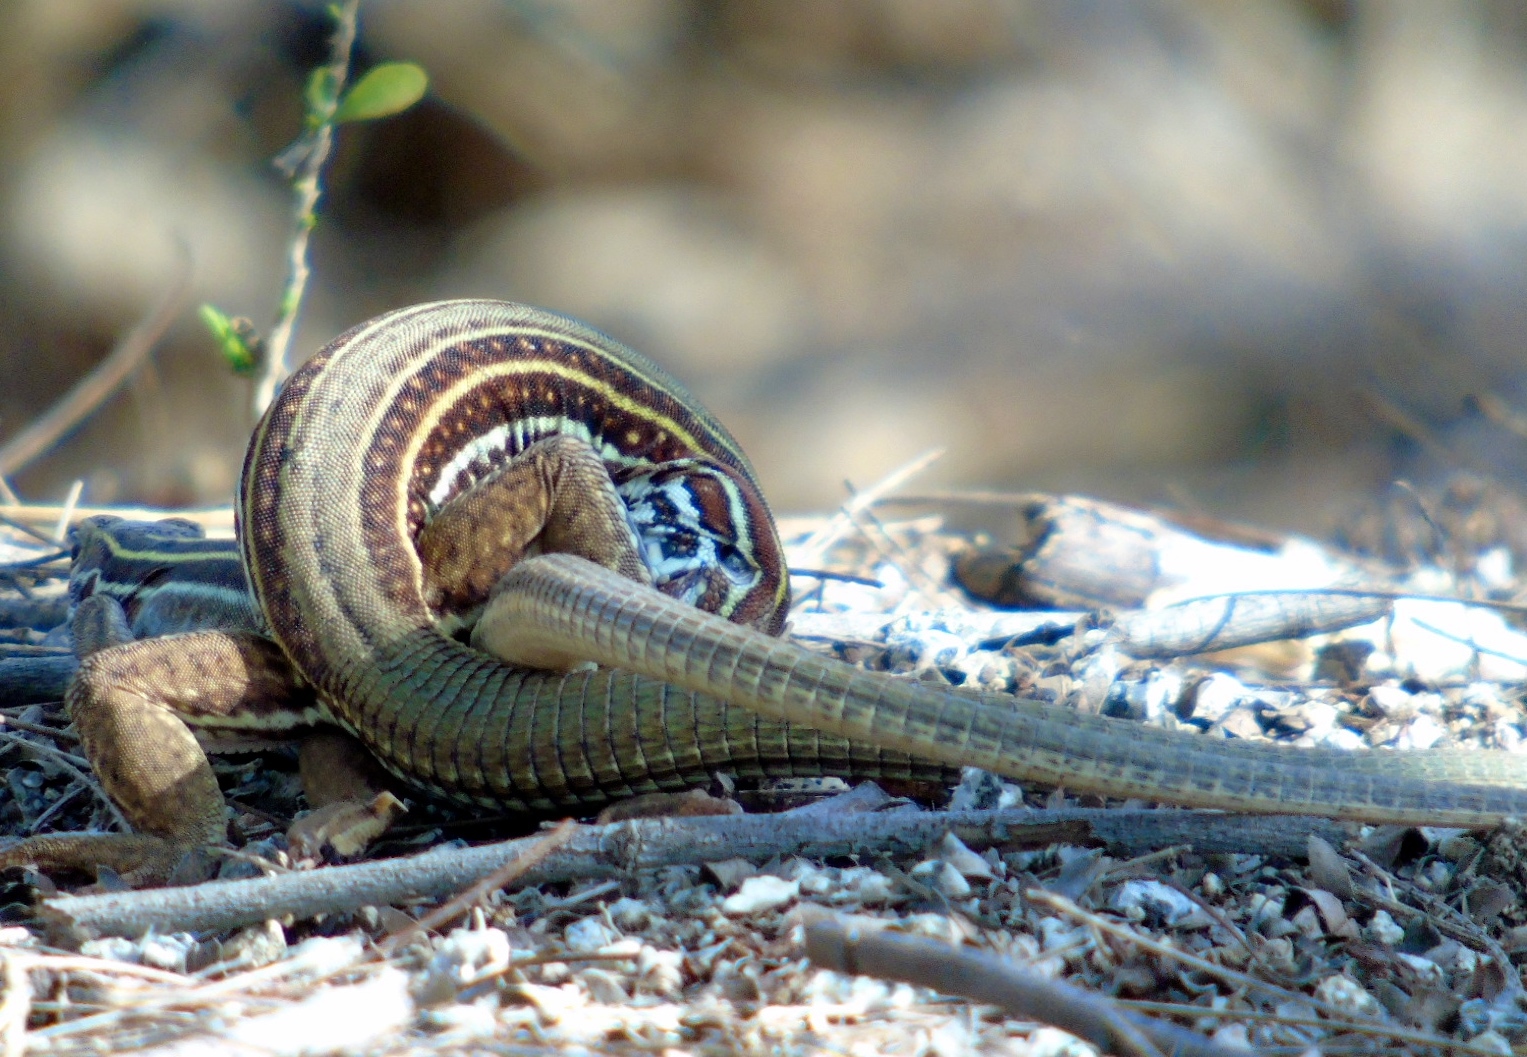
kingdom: Animalia
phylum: Chordata
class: Squamata
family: Teiidae
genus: Aspidoscelis
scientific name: Aspidoscelis costatus
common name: Western mexico whiptail
